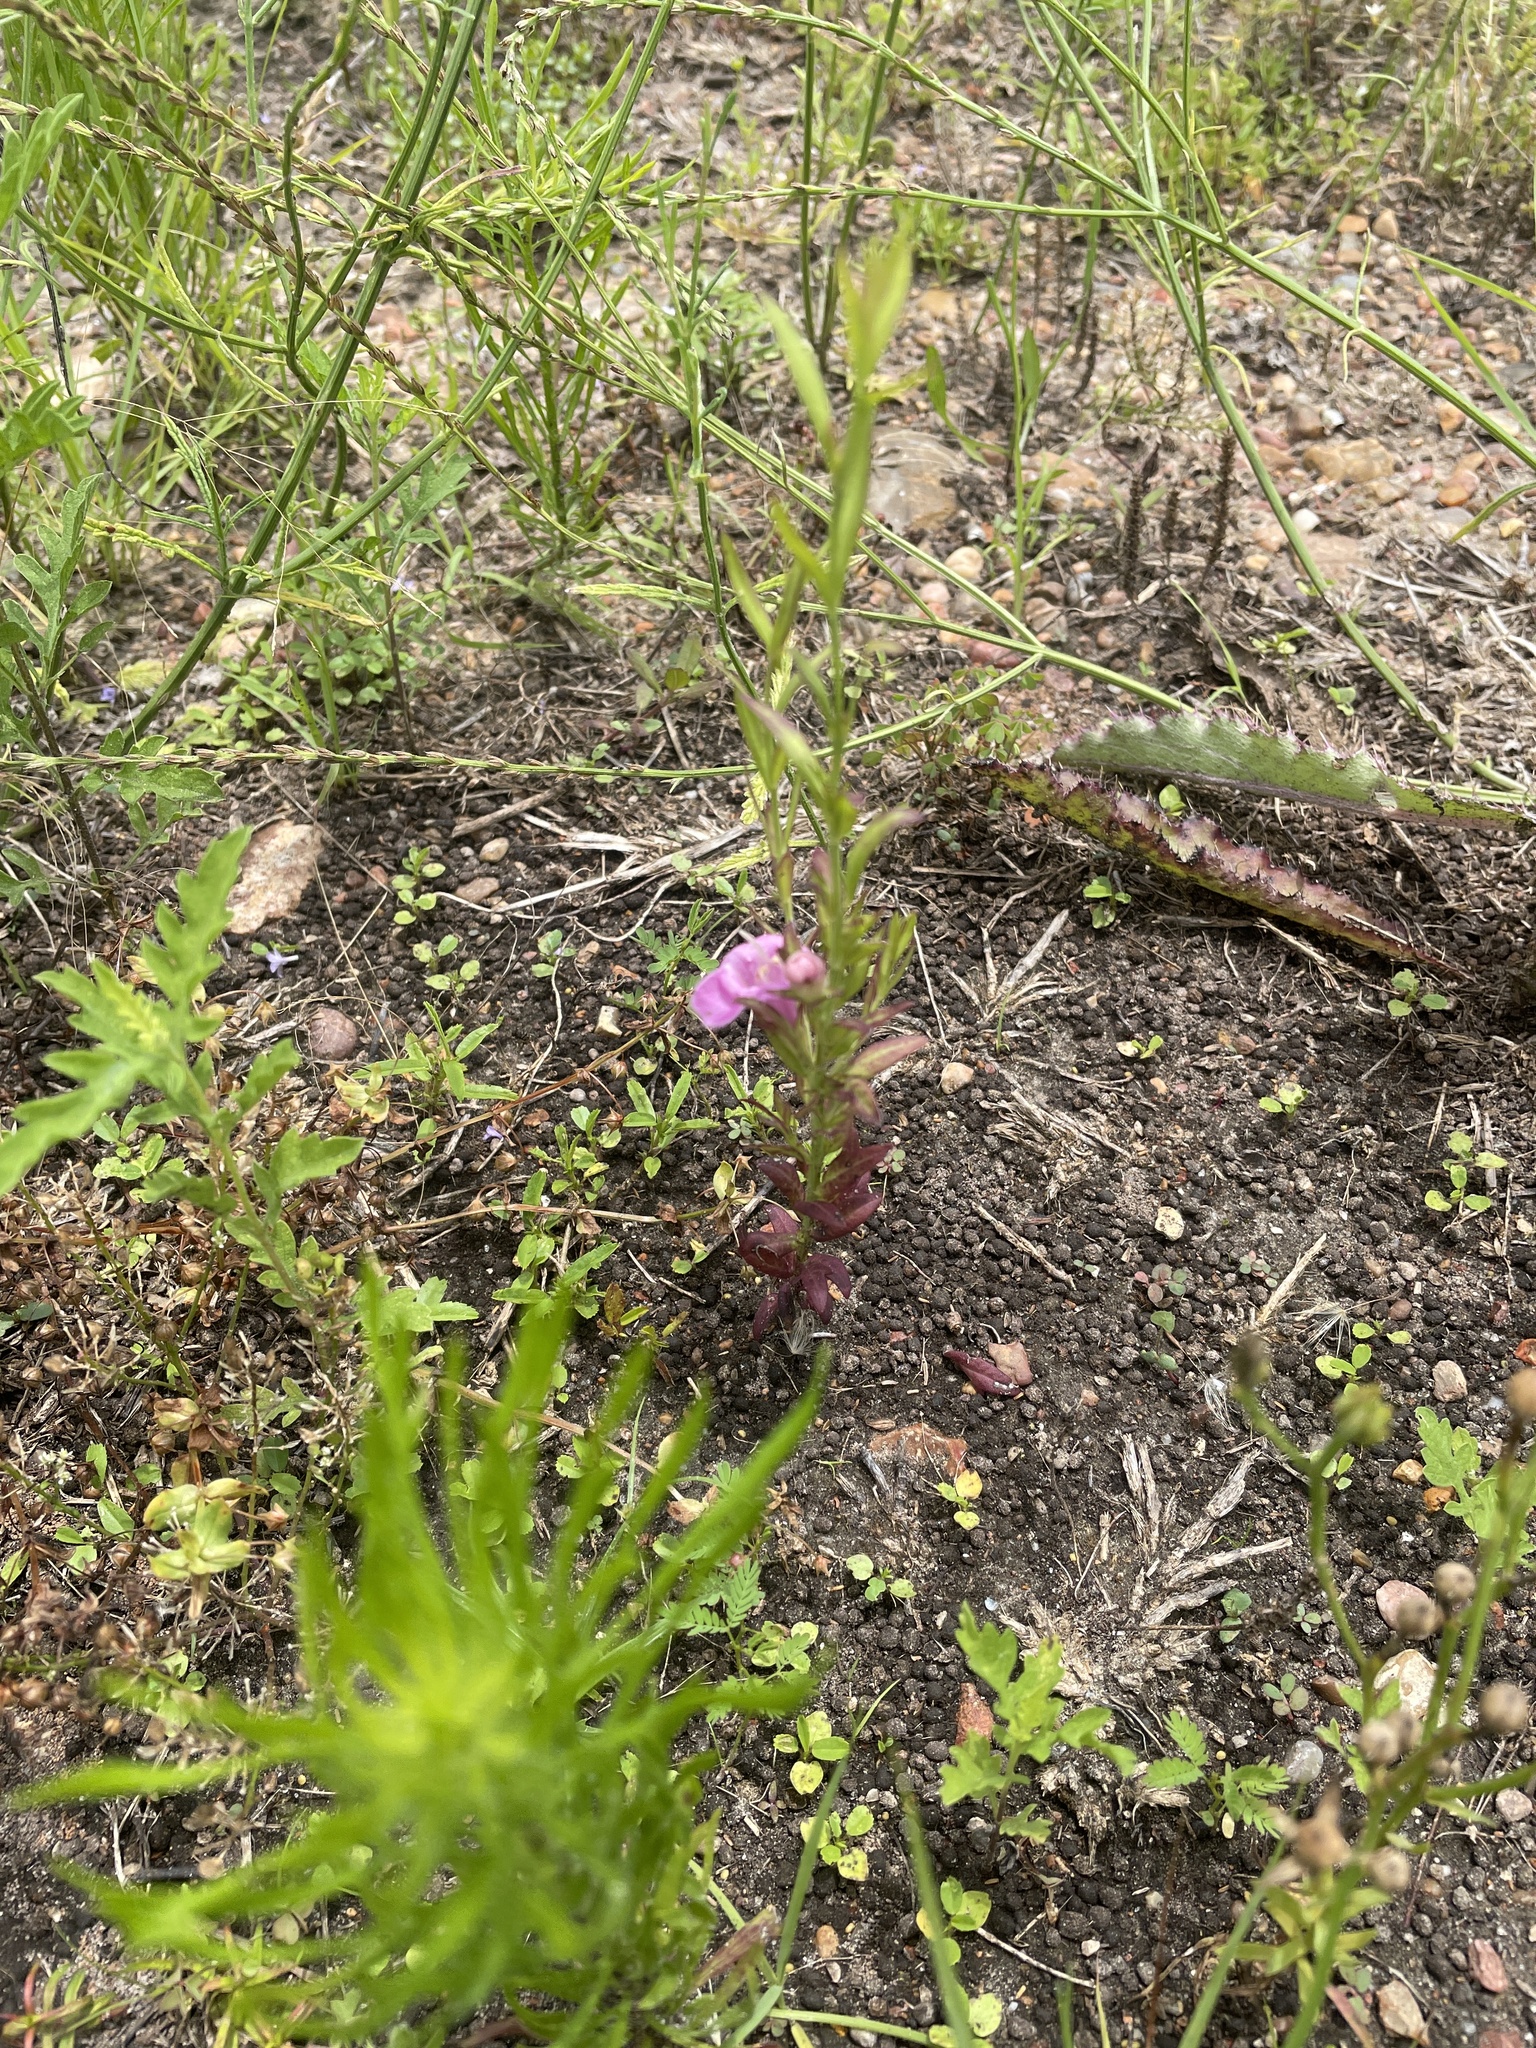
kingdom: Plantae
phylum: Tracheophyta
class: Magnoliopsida
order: Lamiales
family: Orobanchaceae
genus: Agalinis
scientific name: Agalinis heterophylla
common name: Prairie agalinis
